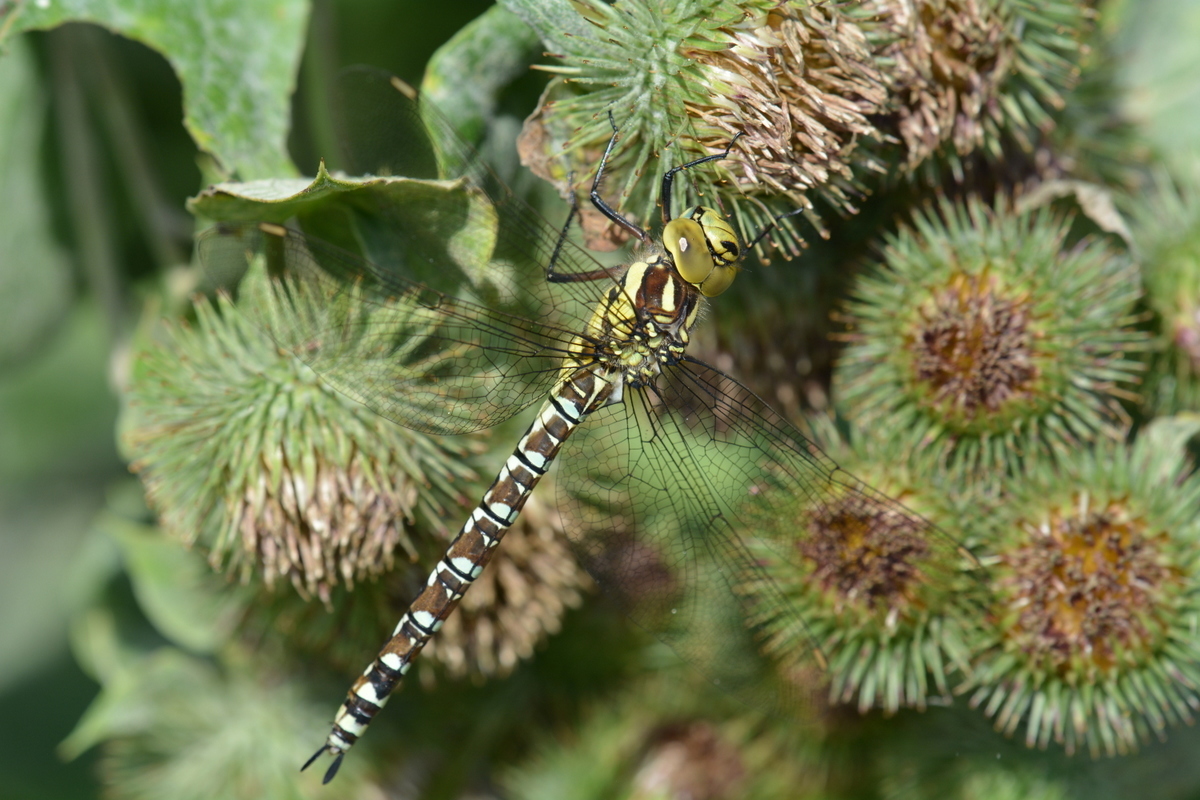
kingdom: Animalia
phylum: Arthropoda
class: Insecta
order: Odonata
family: Aeshnidae
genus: Aeshna
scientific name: Aeshna cyanea
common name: Southern hawker
